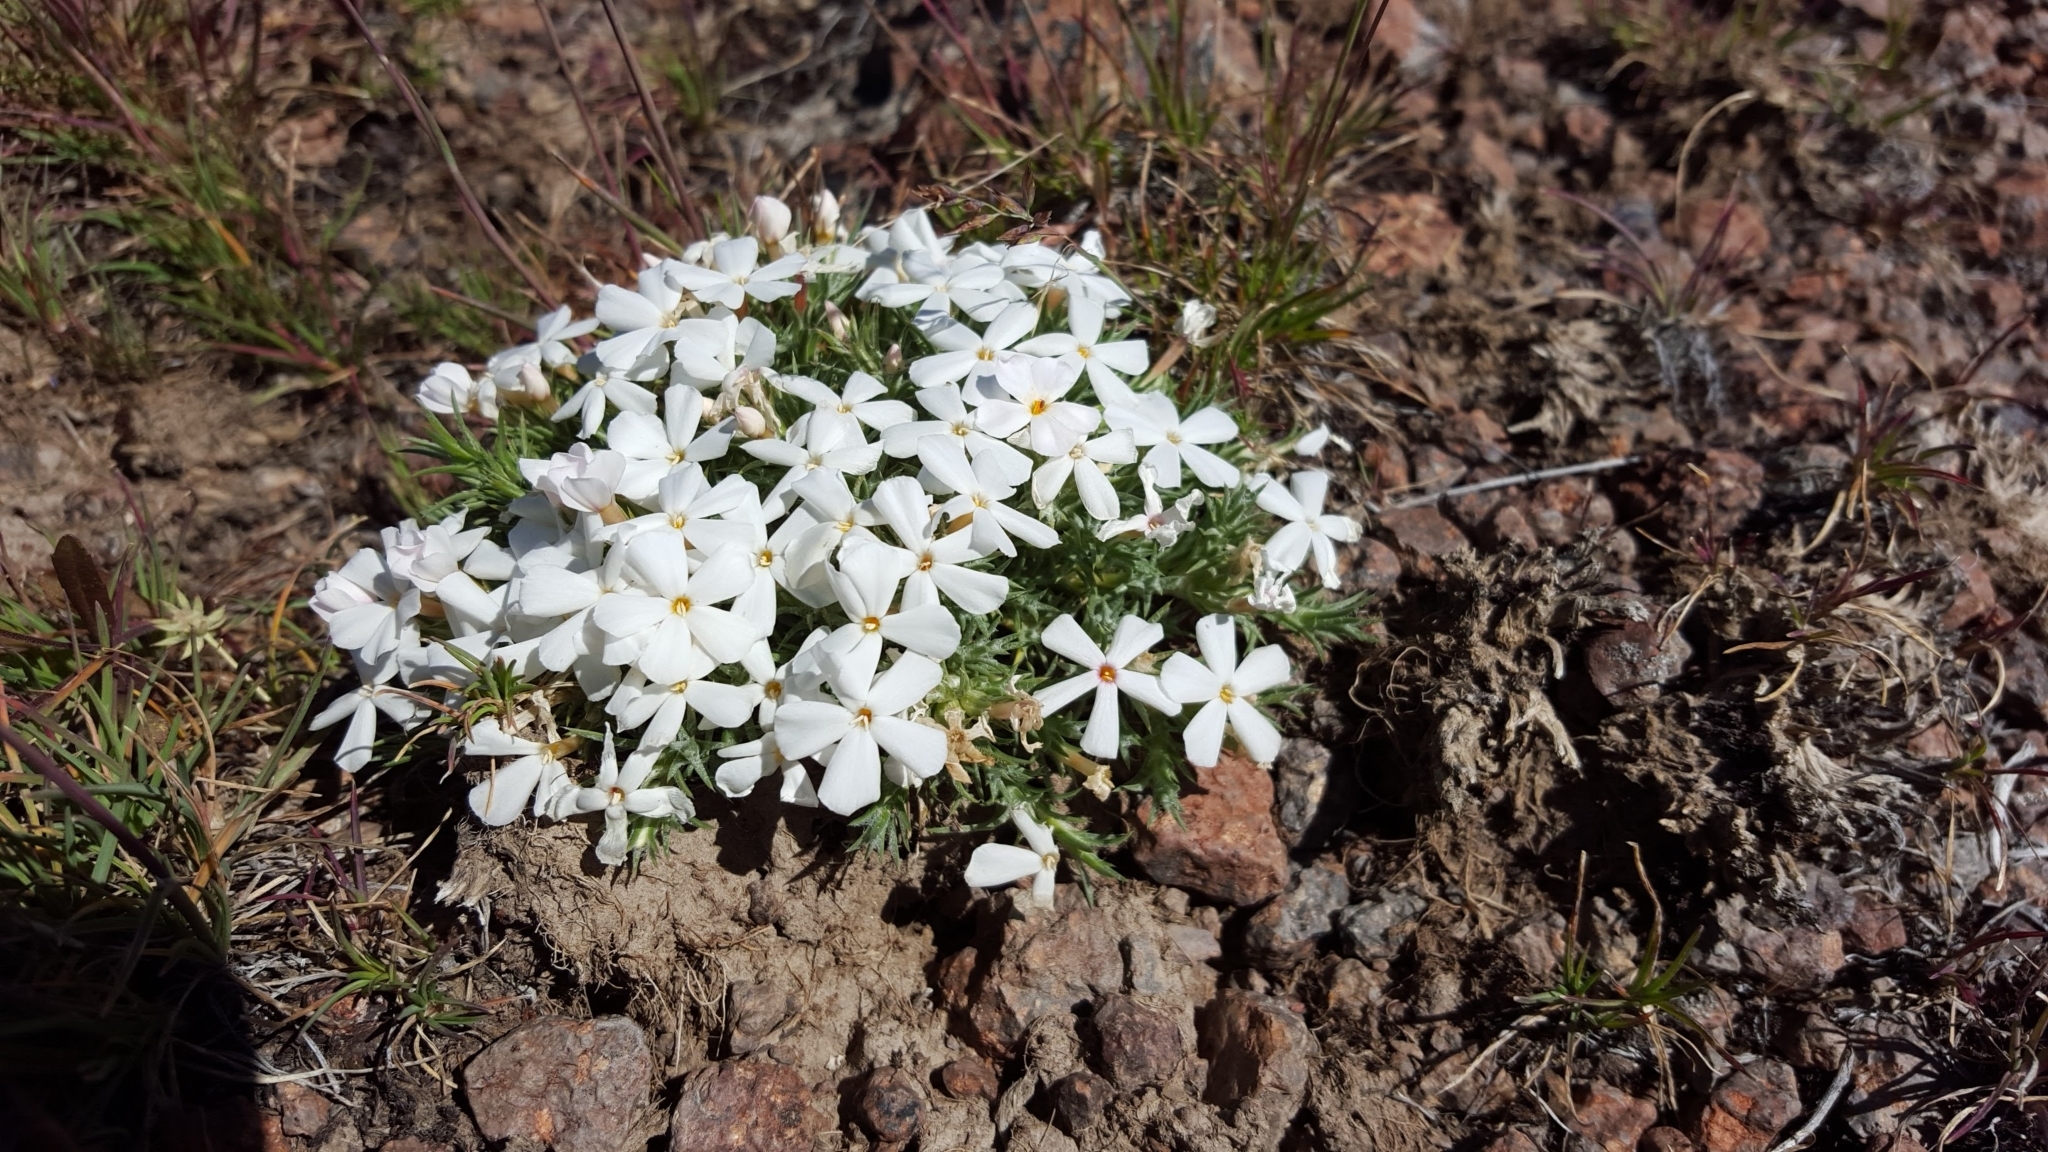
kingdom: Plantae
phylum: Tracheophyta
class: Magnoliopsida
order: Ericales
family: Polemoniaceae
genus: Phlox
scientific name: Phlox hoodii
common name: Moss phlox
